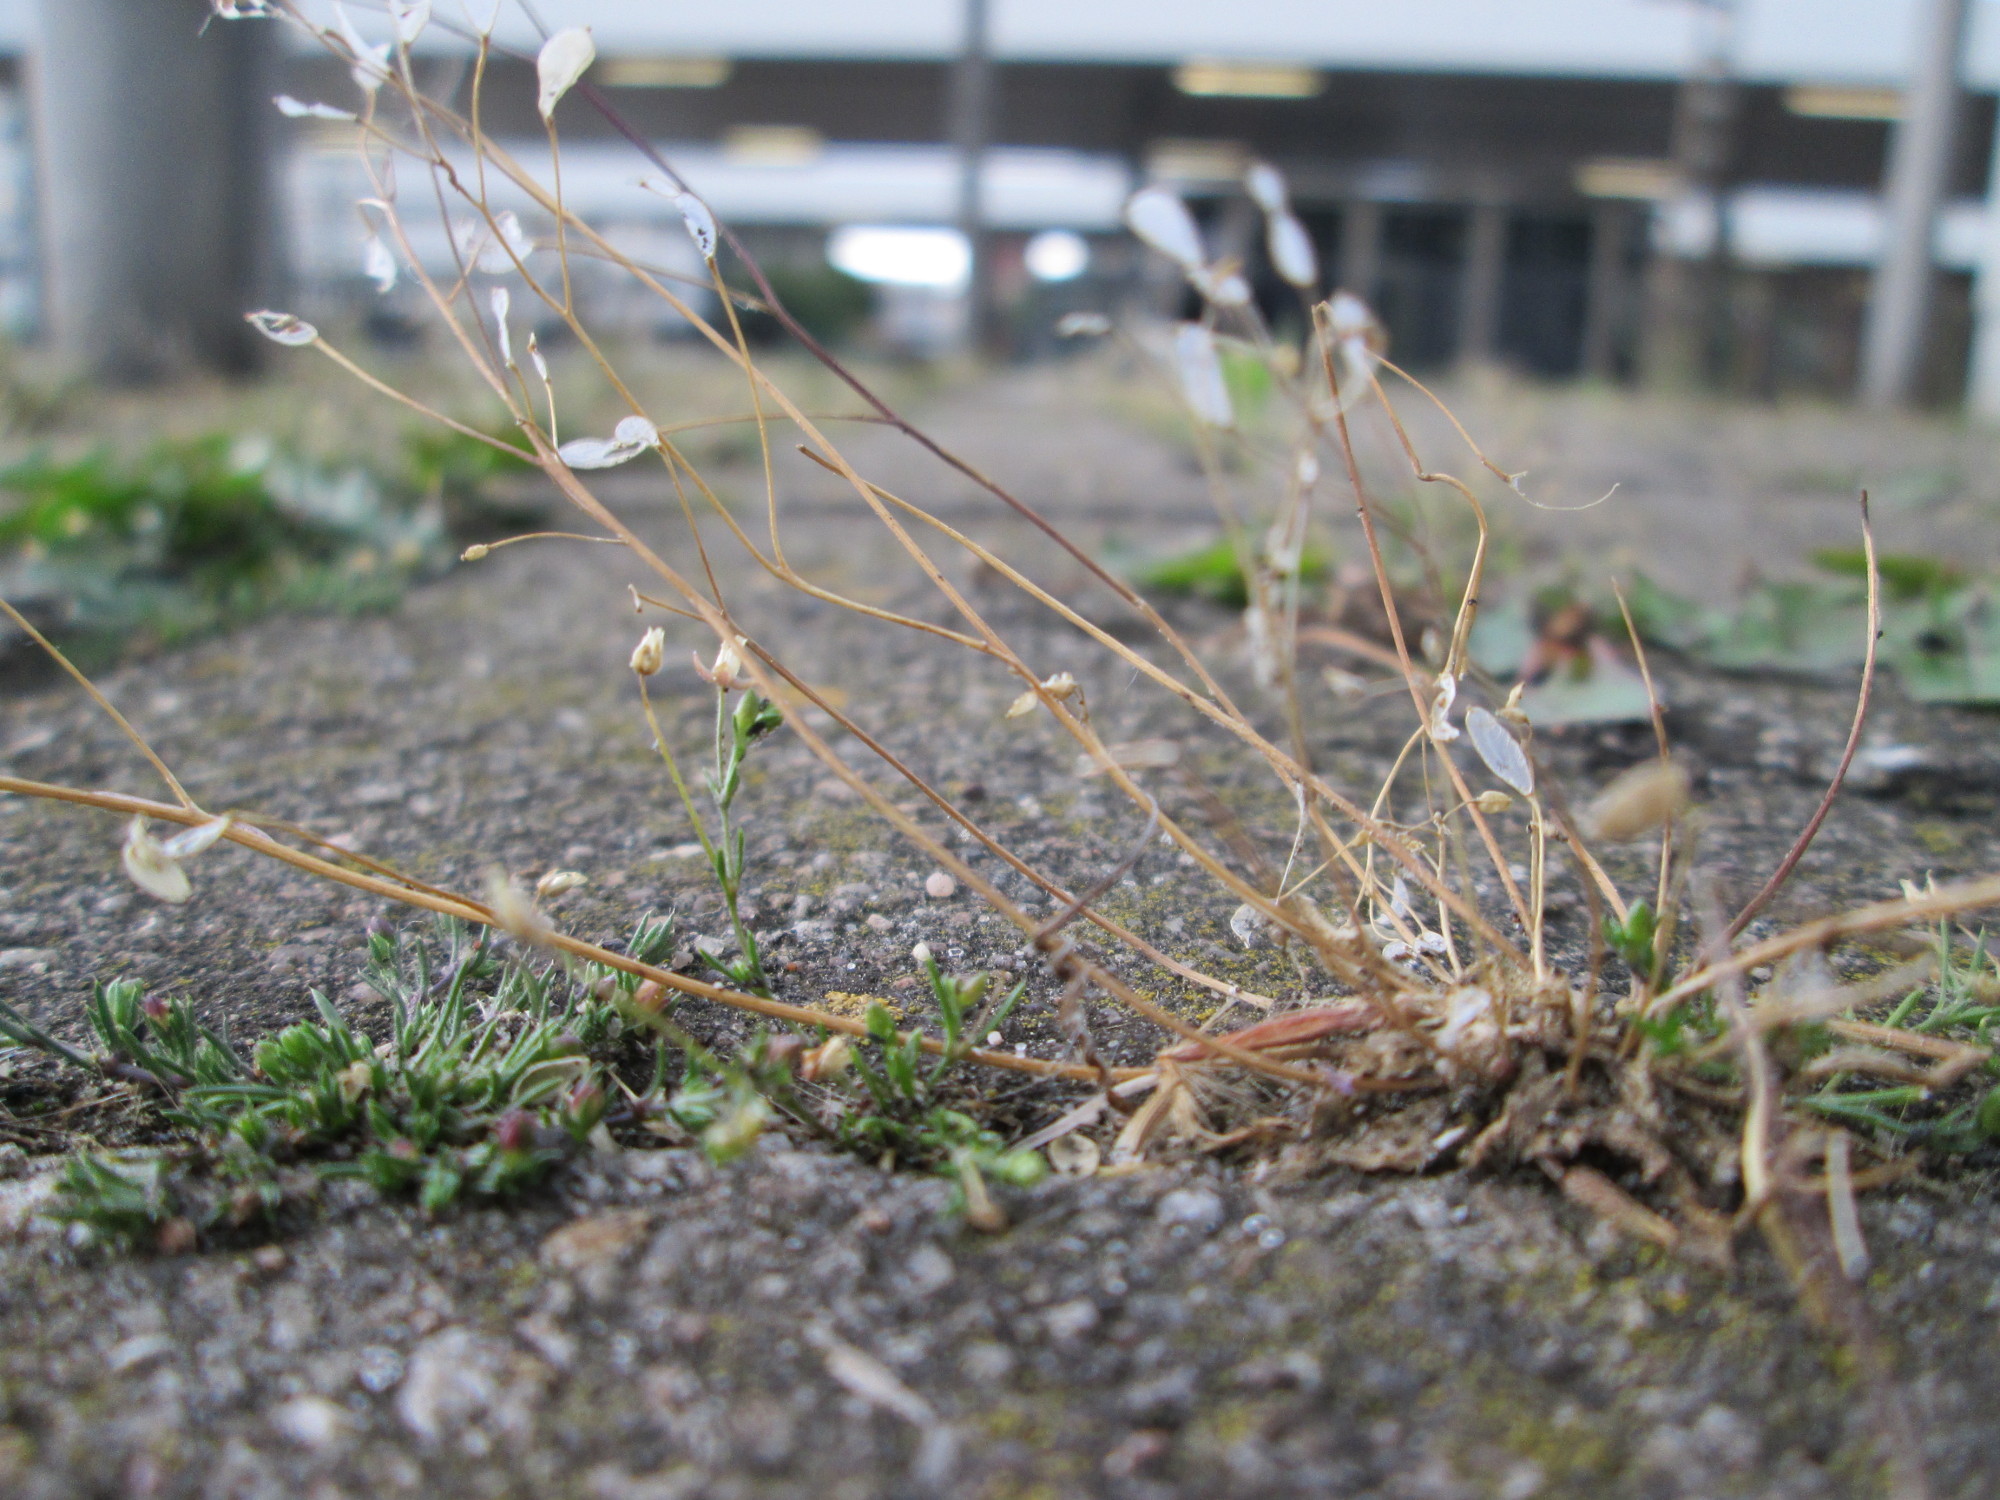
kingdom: Plantae
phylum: Tracheophyta
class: Magnoliopsida
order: Brassicales
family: Brassicaceae
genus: Draba
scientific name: Draba verna
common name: Spring draba
